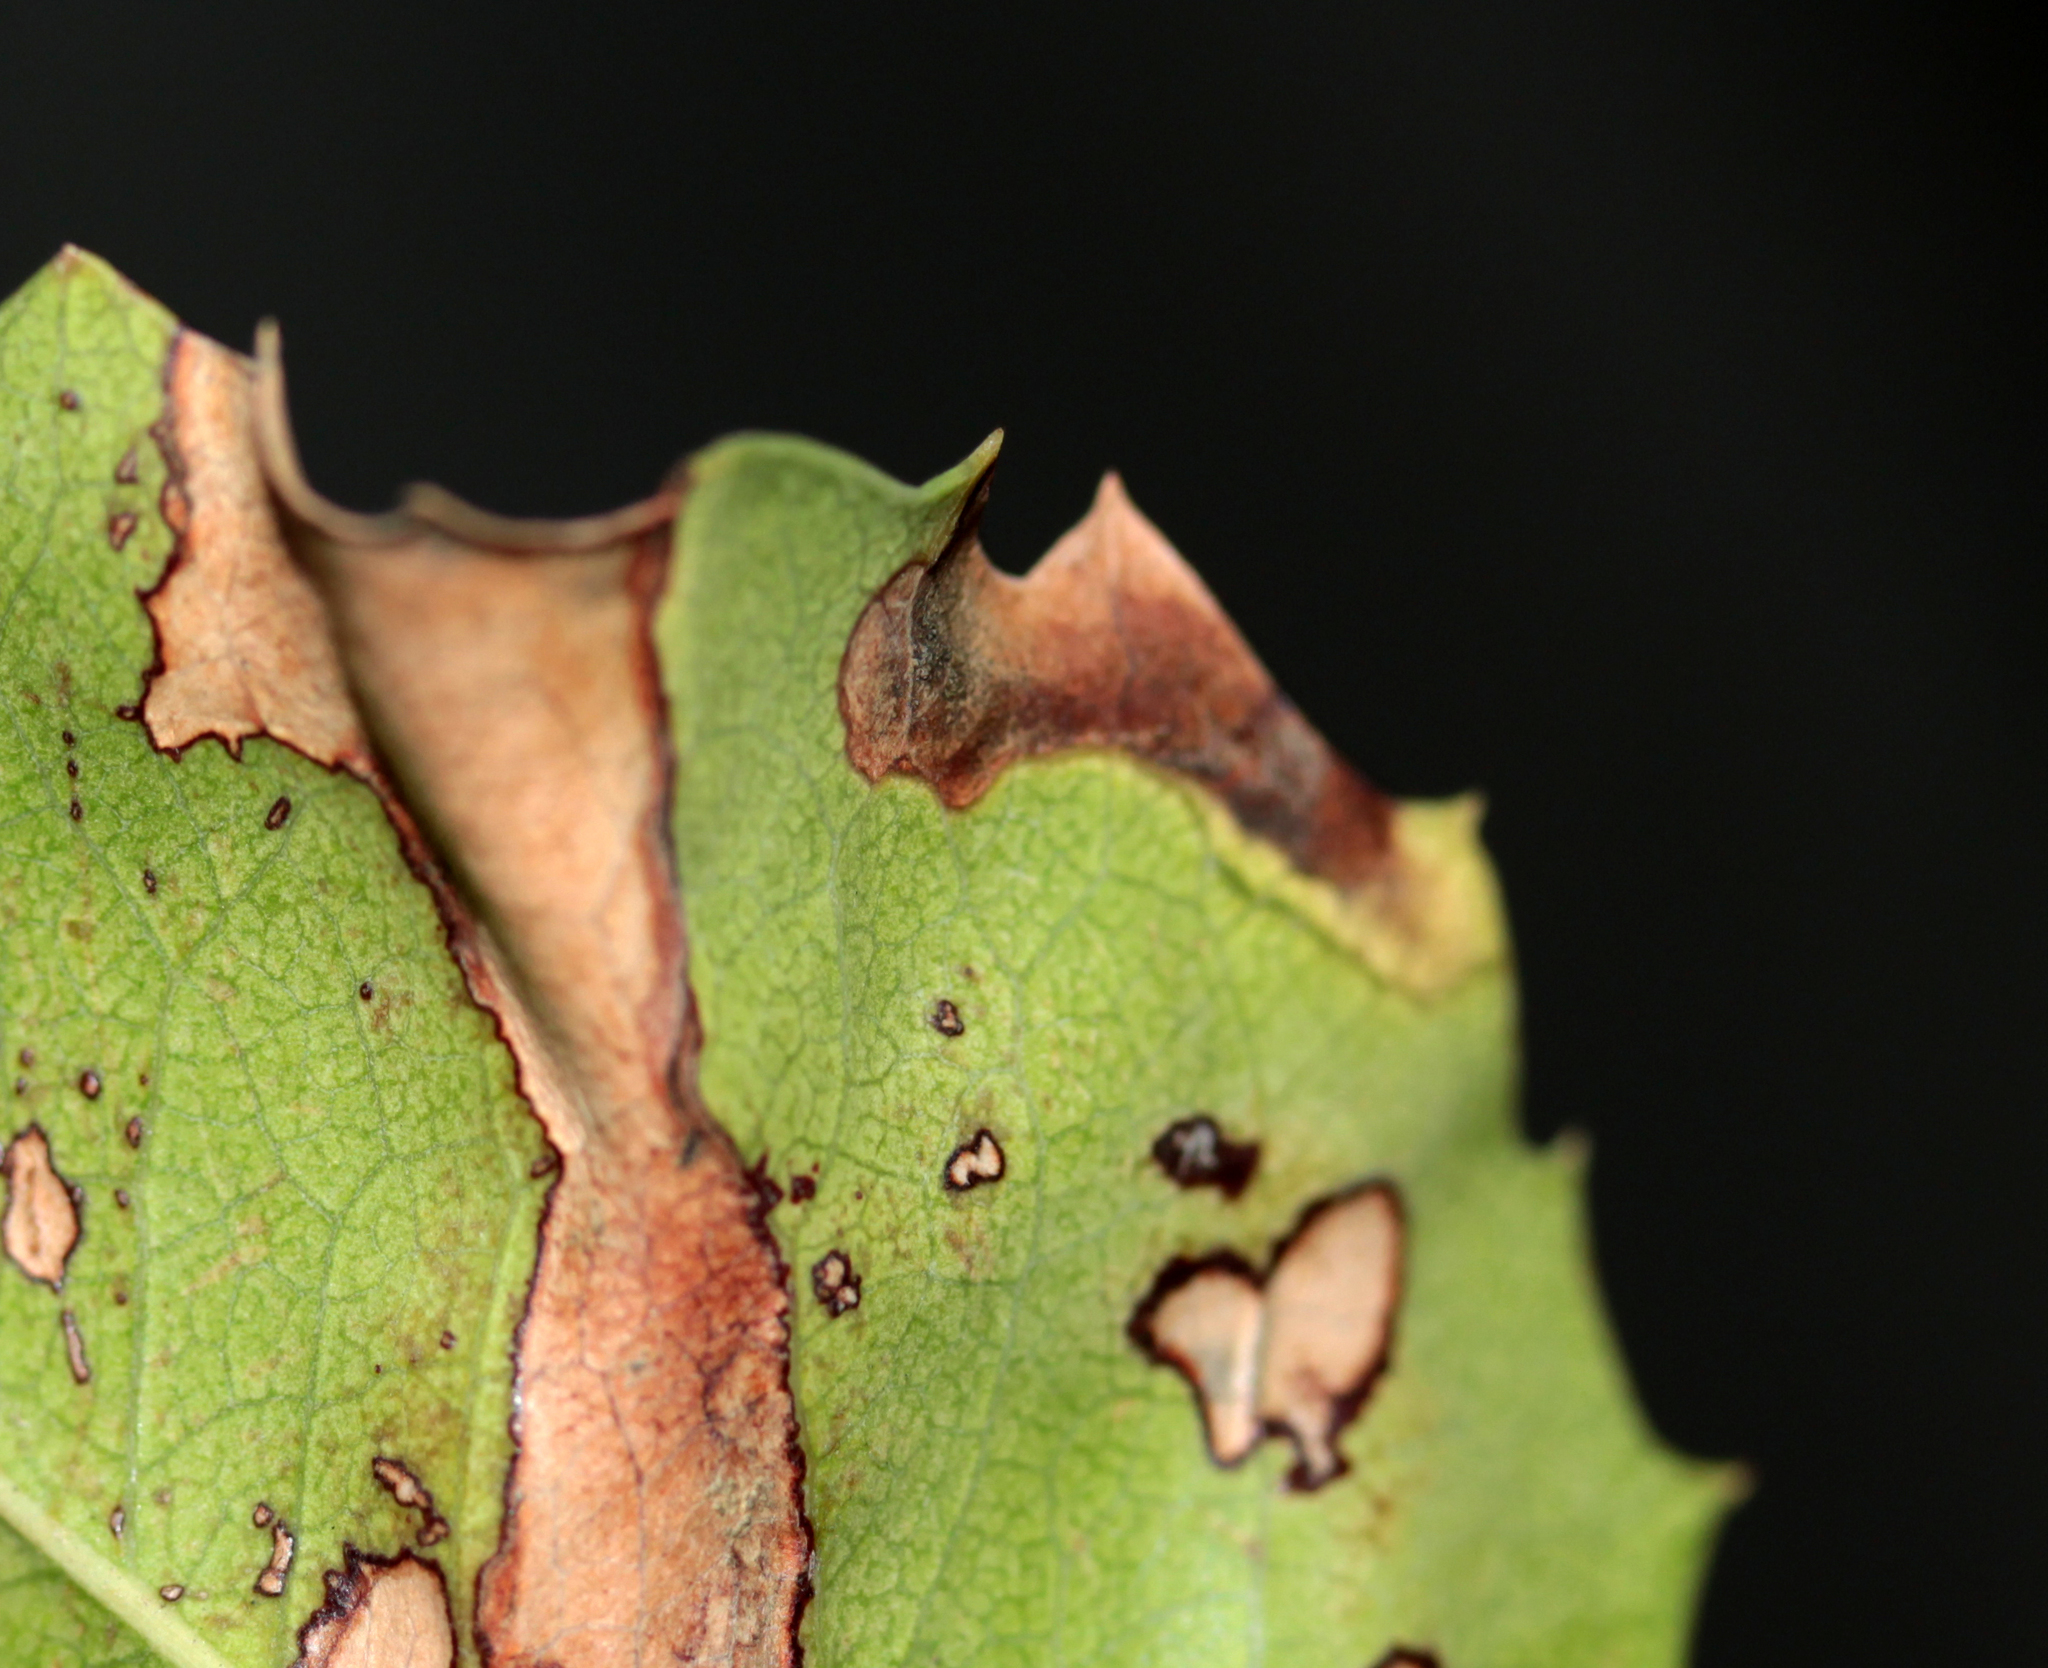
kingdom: Animalia
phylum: Arthropoda
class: Insecta
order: Lepidoptera
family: Nepticulidae
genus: Stigmella
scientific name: Stigmella braunella
